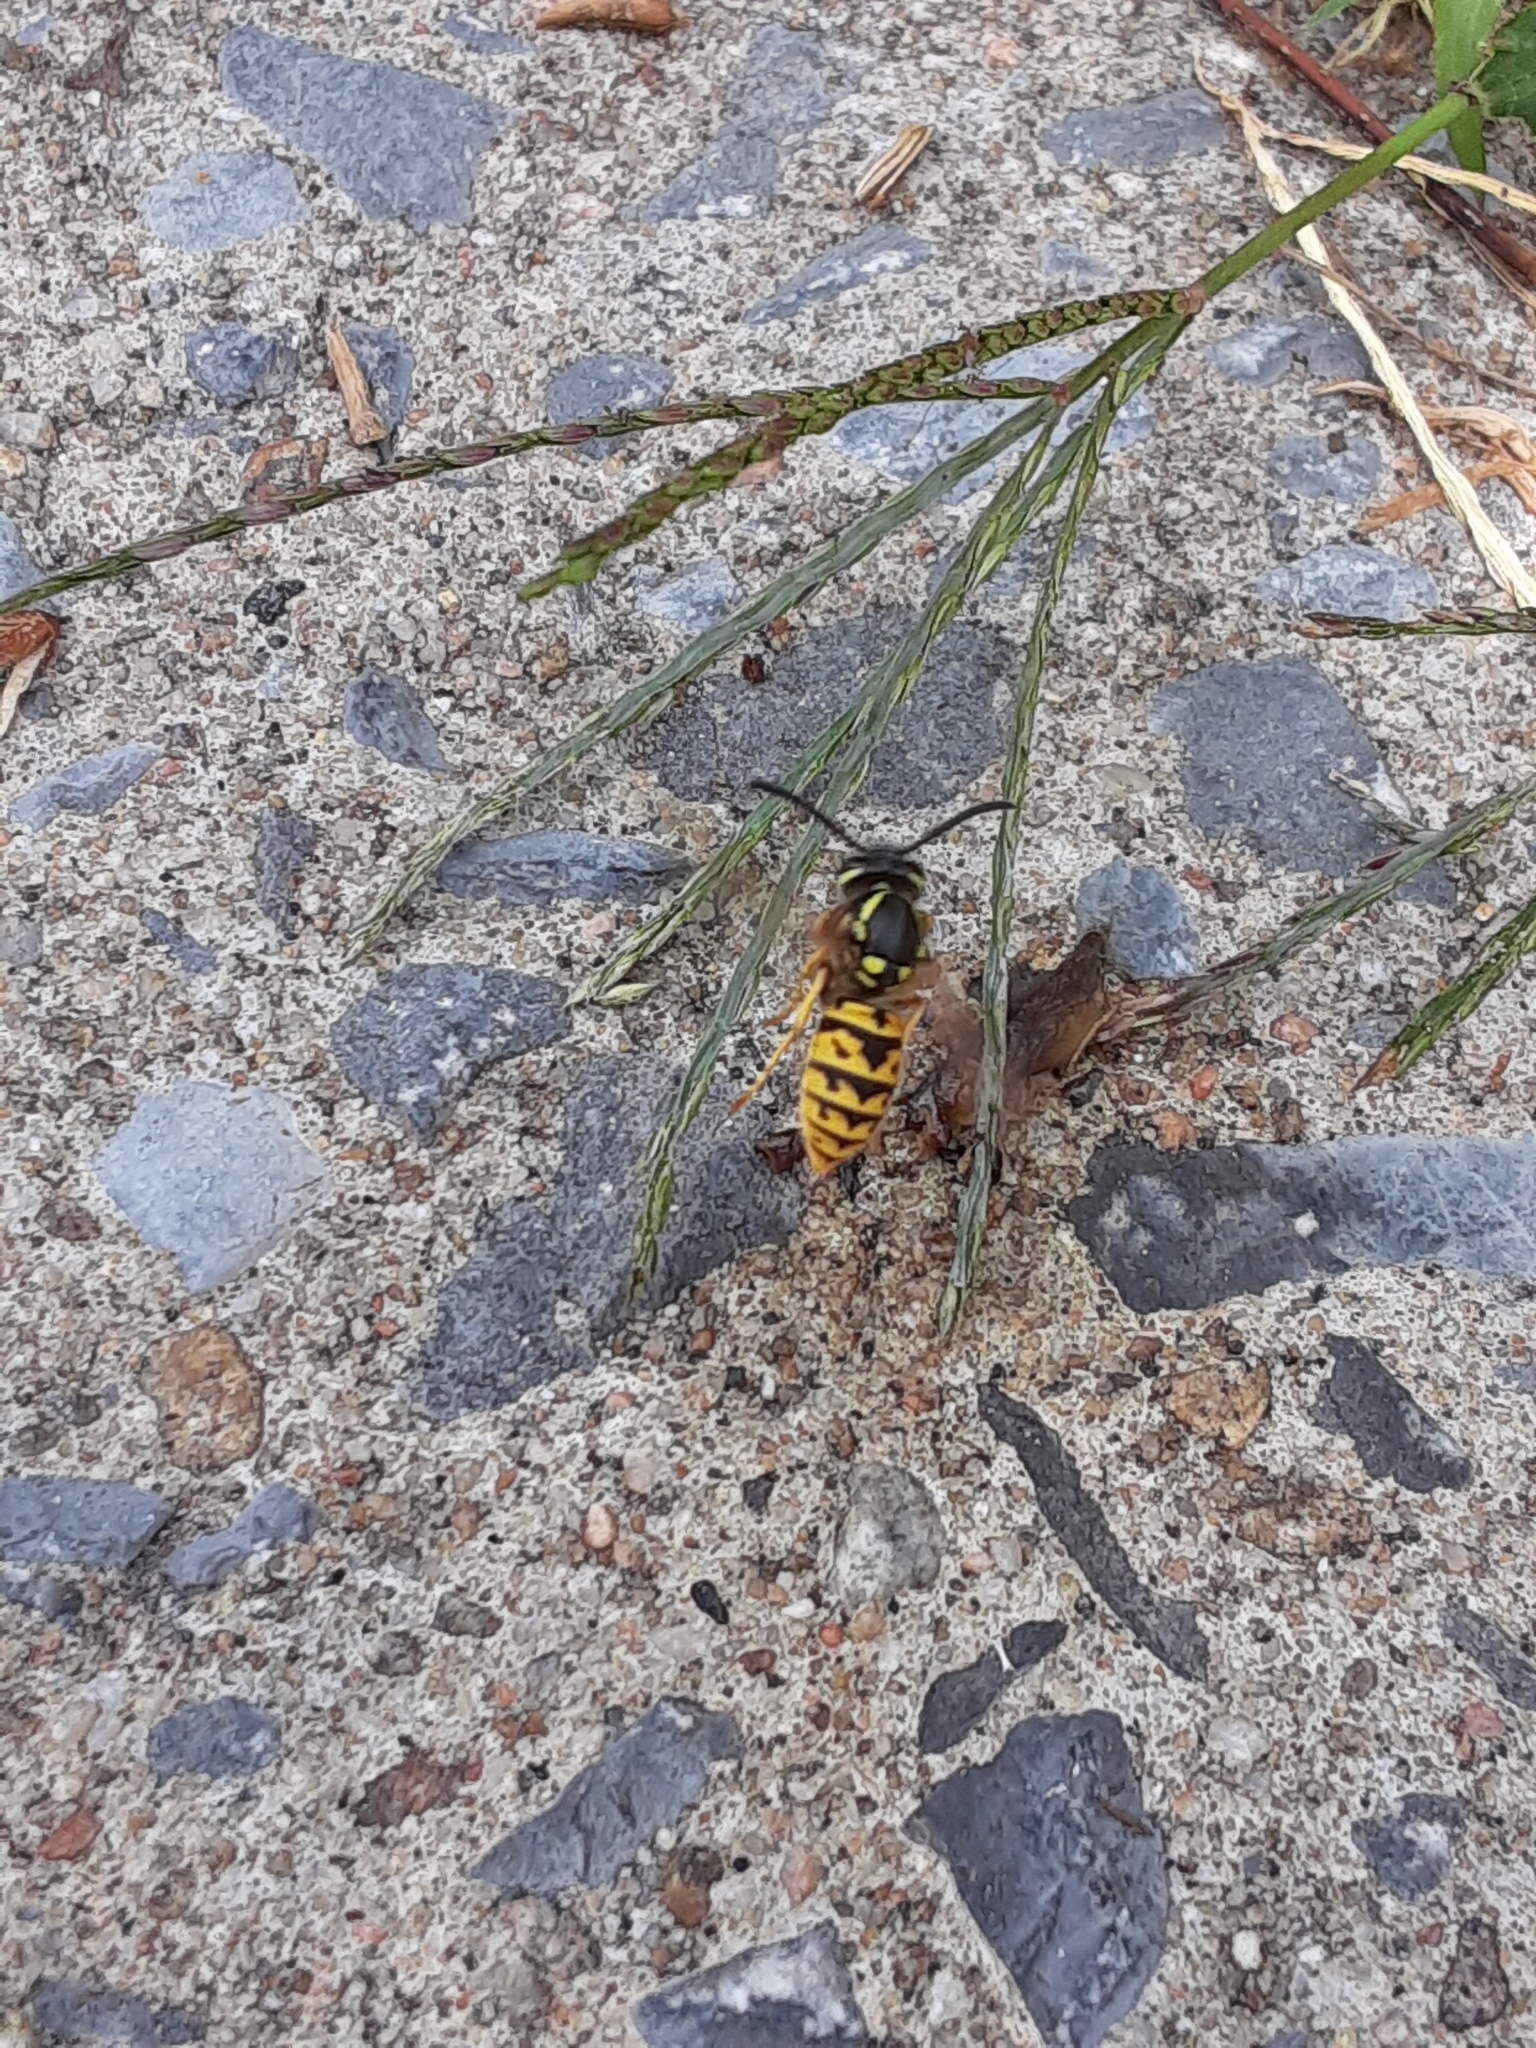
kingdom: Animalia
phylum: Arthropoda
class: Insecta
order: Hymenoptera
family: Vespidae
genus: Vespula
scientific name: Vespula germanica
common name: German wasp
